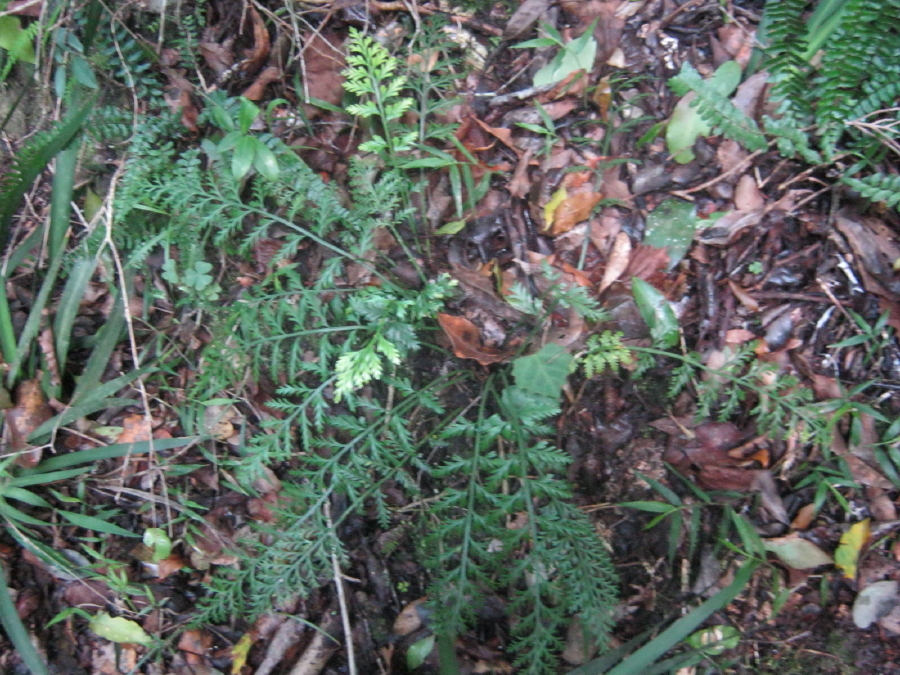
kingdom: Plantae
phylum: Tracheophyta
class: Polypodiopsida
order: Polypodiales
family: Aspleniaceae
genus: Asplenium
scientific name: Asplenium rutifolium
